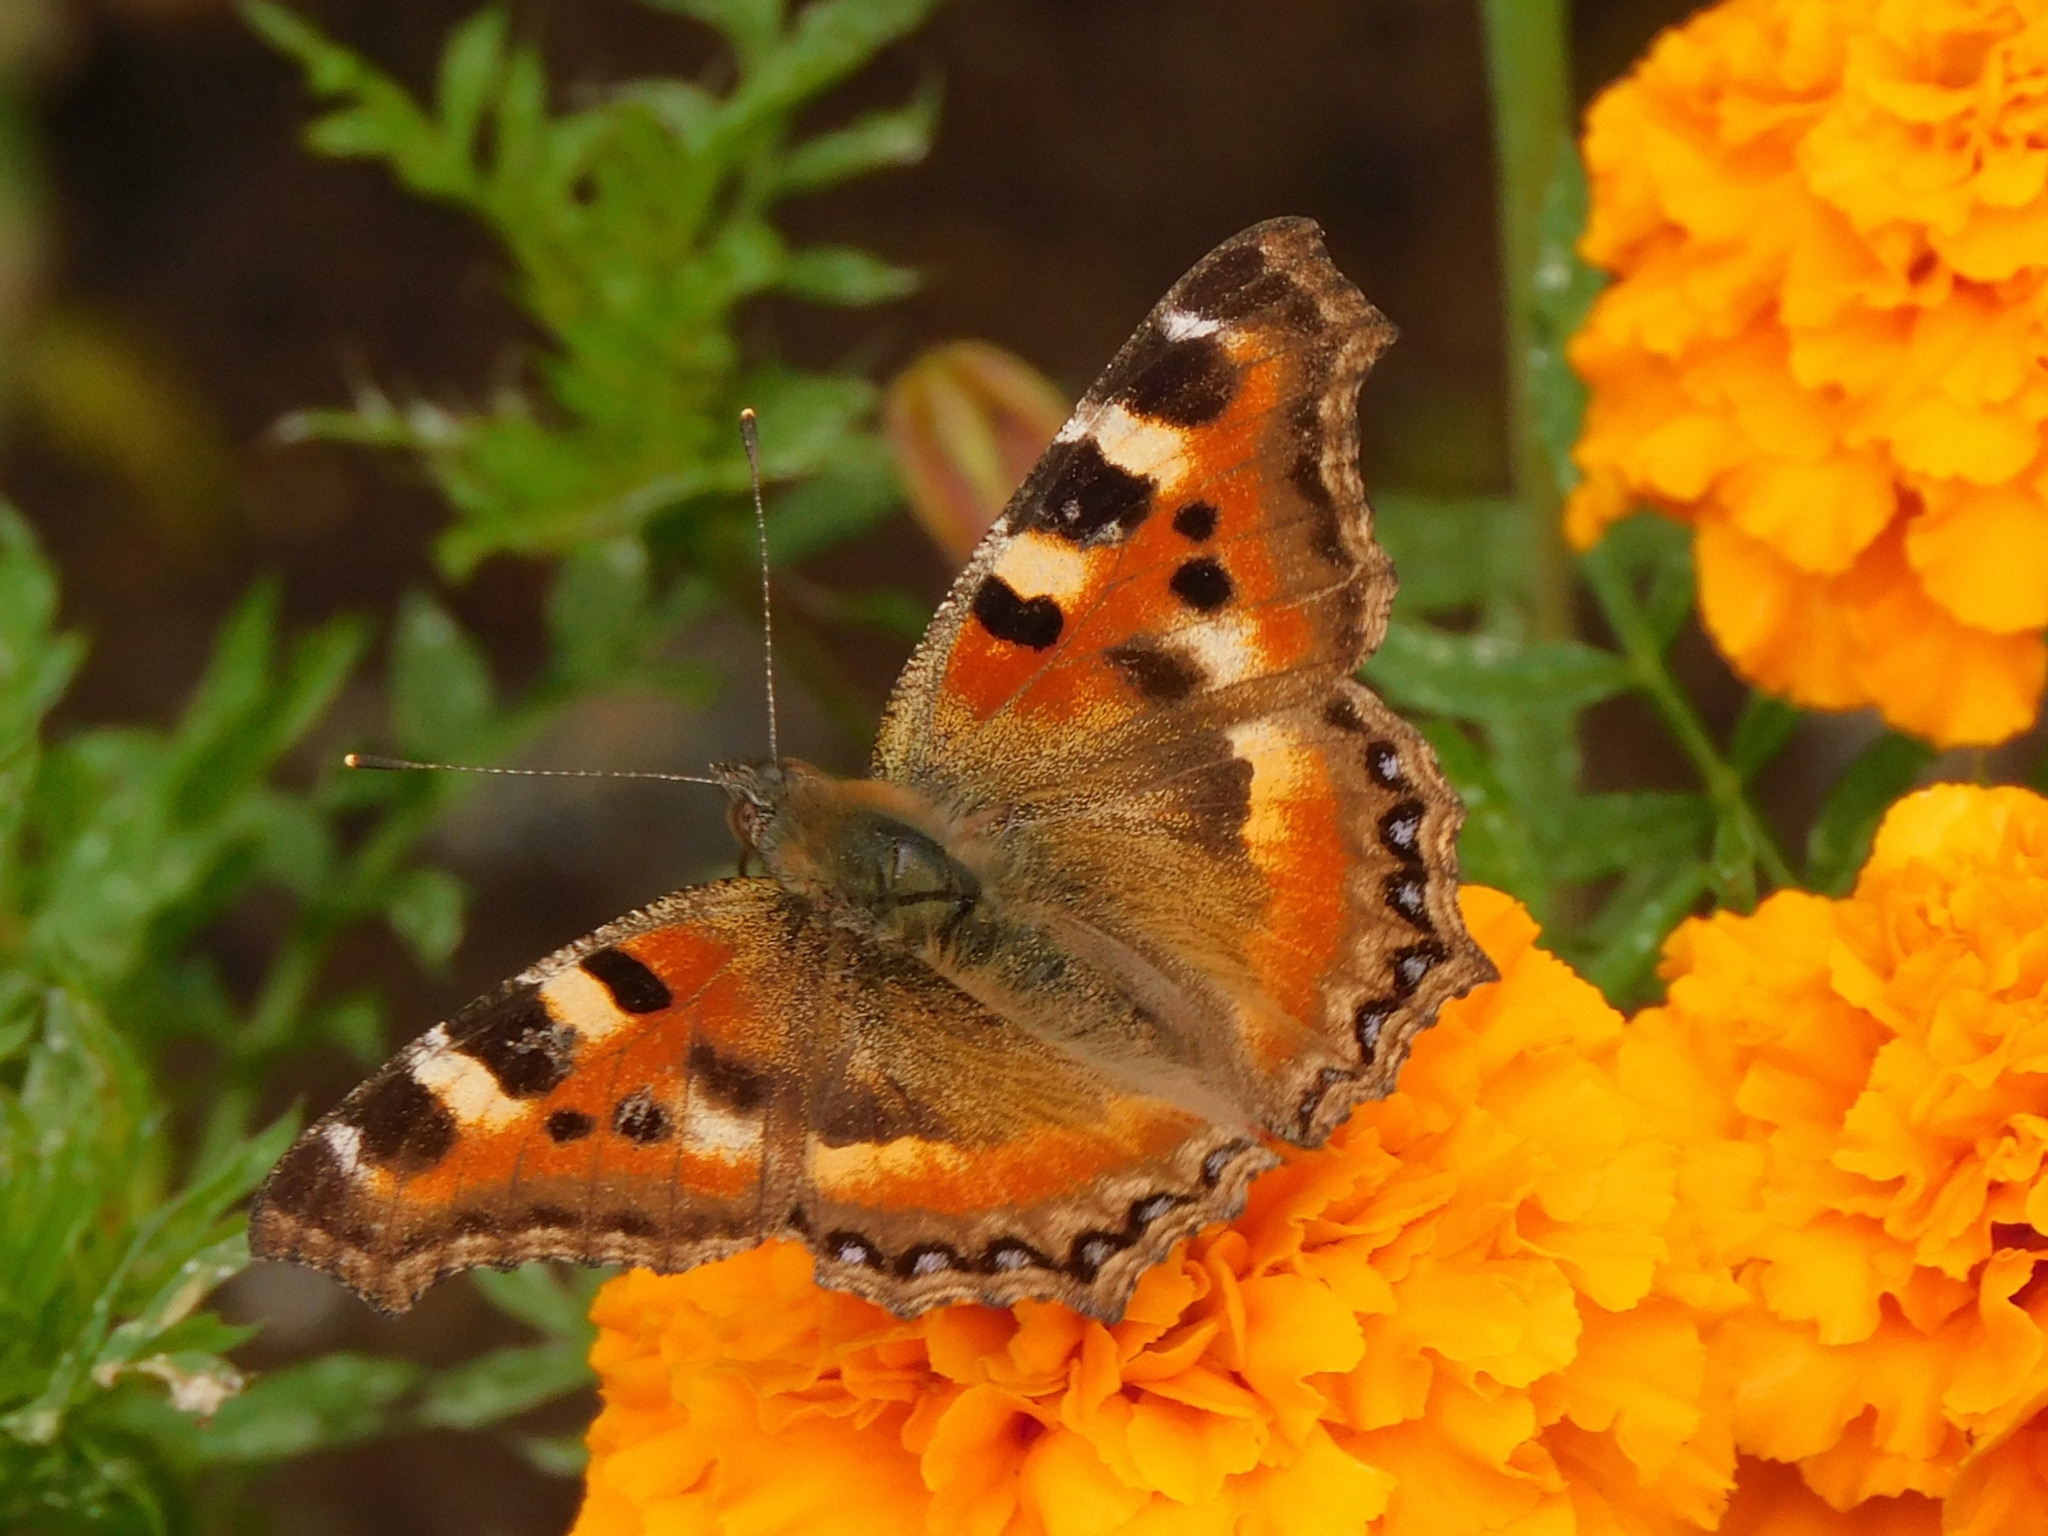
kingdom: Animalia
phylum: Arthropoda
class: Insecta
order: Lepidoptera
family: Nymphalidae
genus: Aglais
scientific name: Aglais caschmirensis
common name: Indian tortoiseshell
